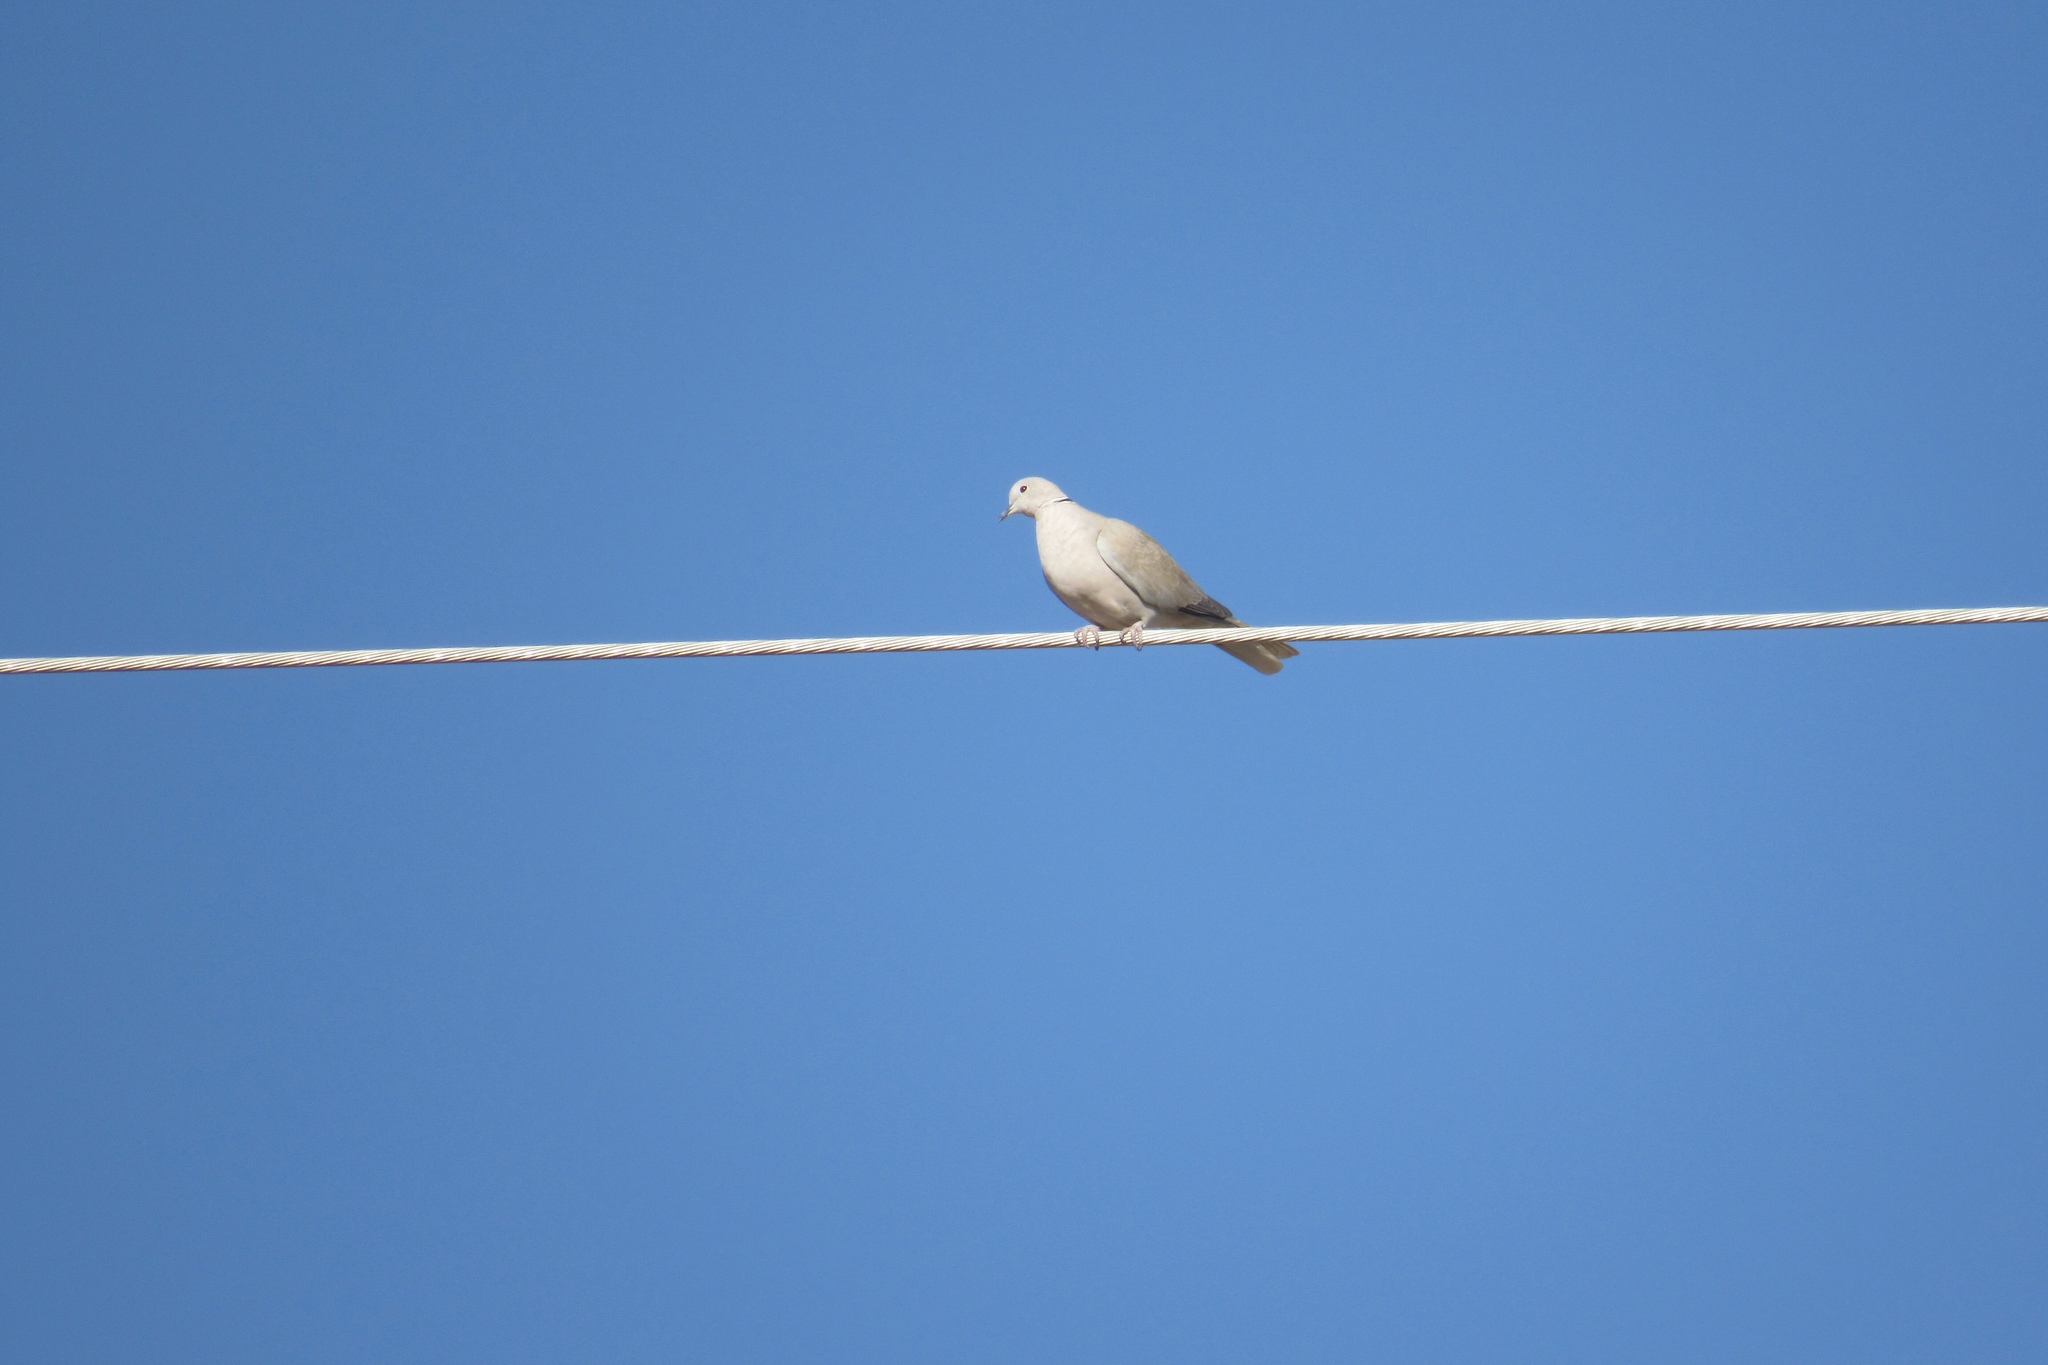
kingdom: Animalia
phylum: Chordata
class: Aves
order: Columbiformes
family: Columbidae
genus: Streptopelia
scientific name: Streptopelia decaocto
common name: Eurasian collared dove
